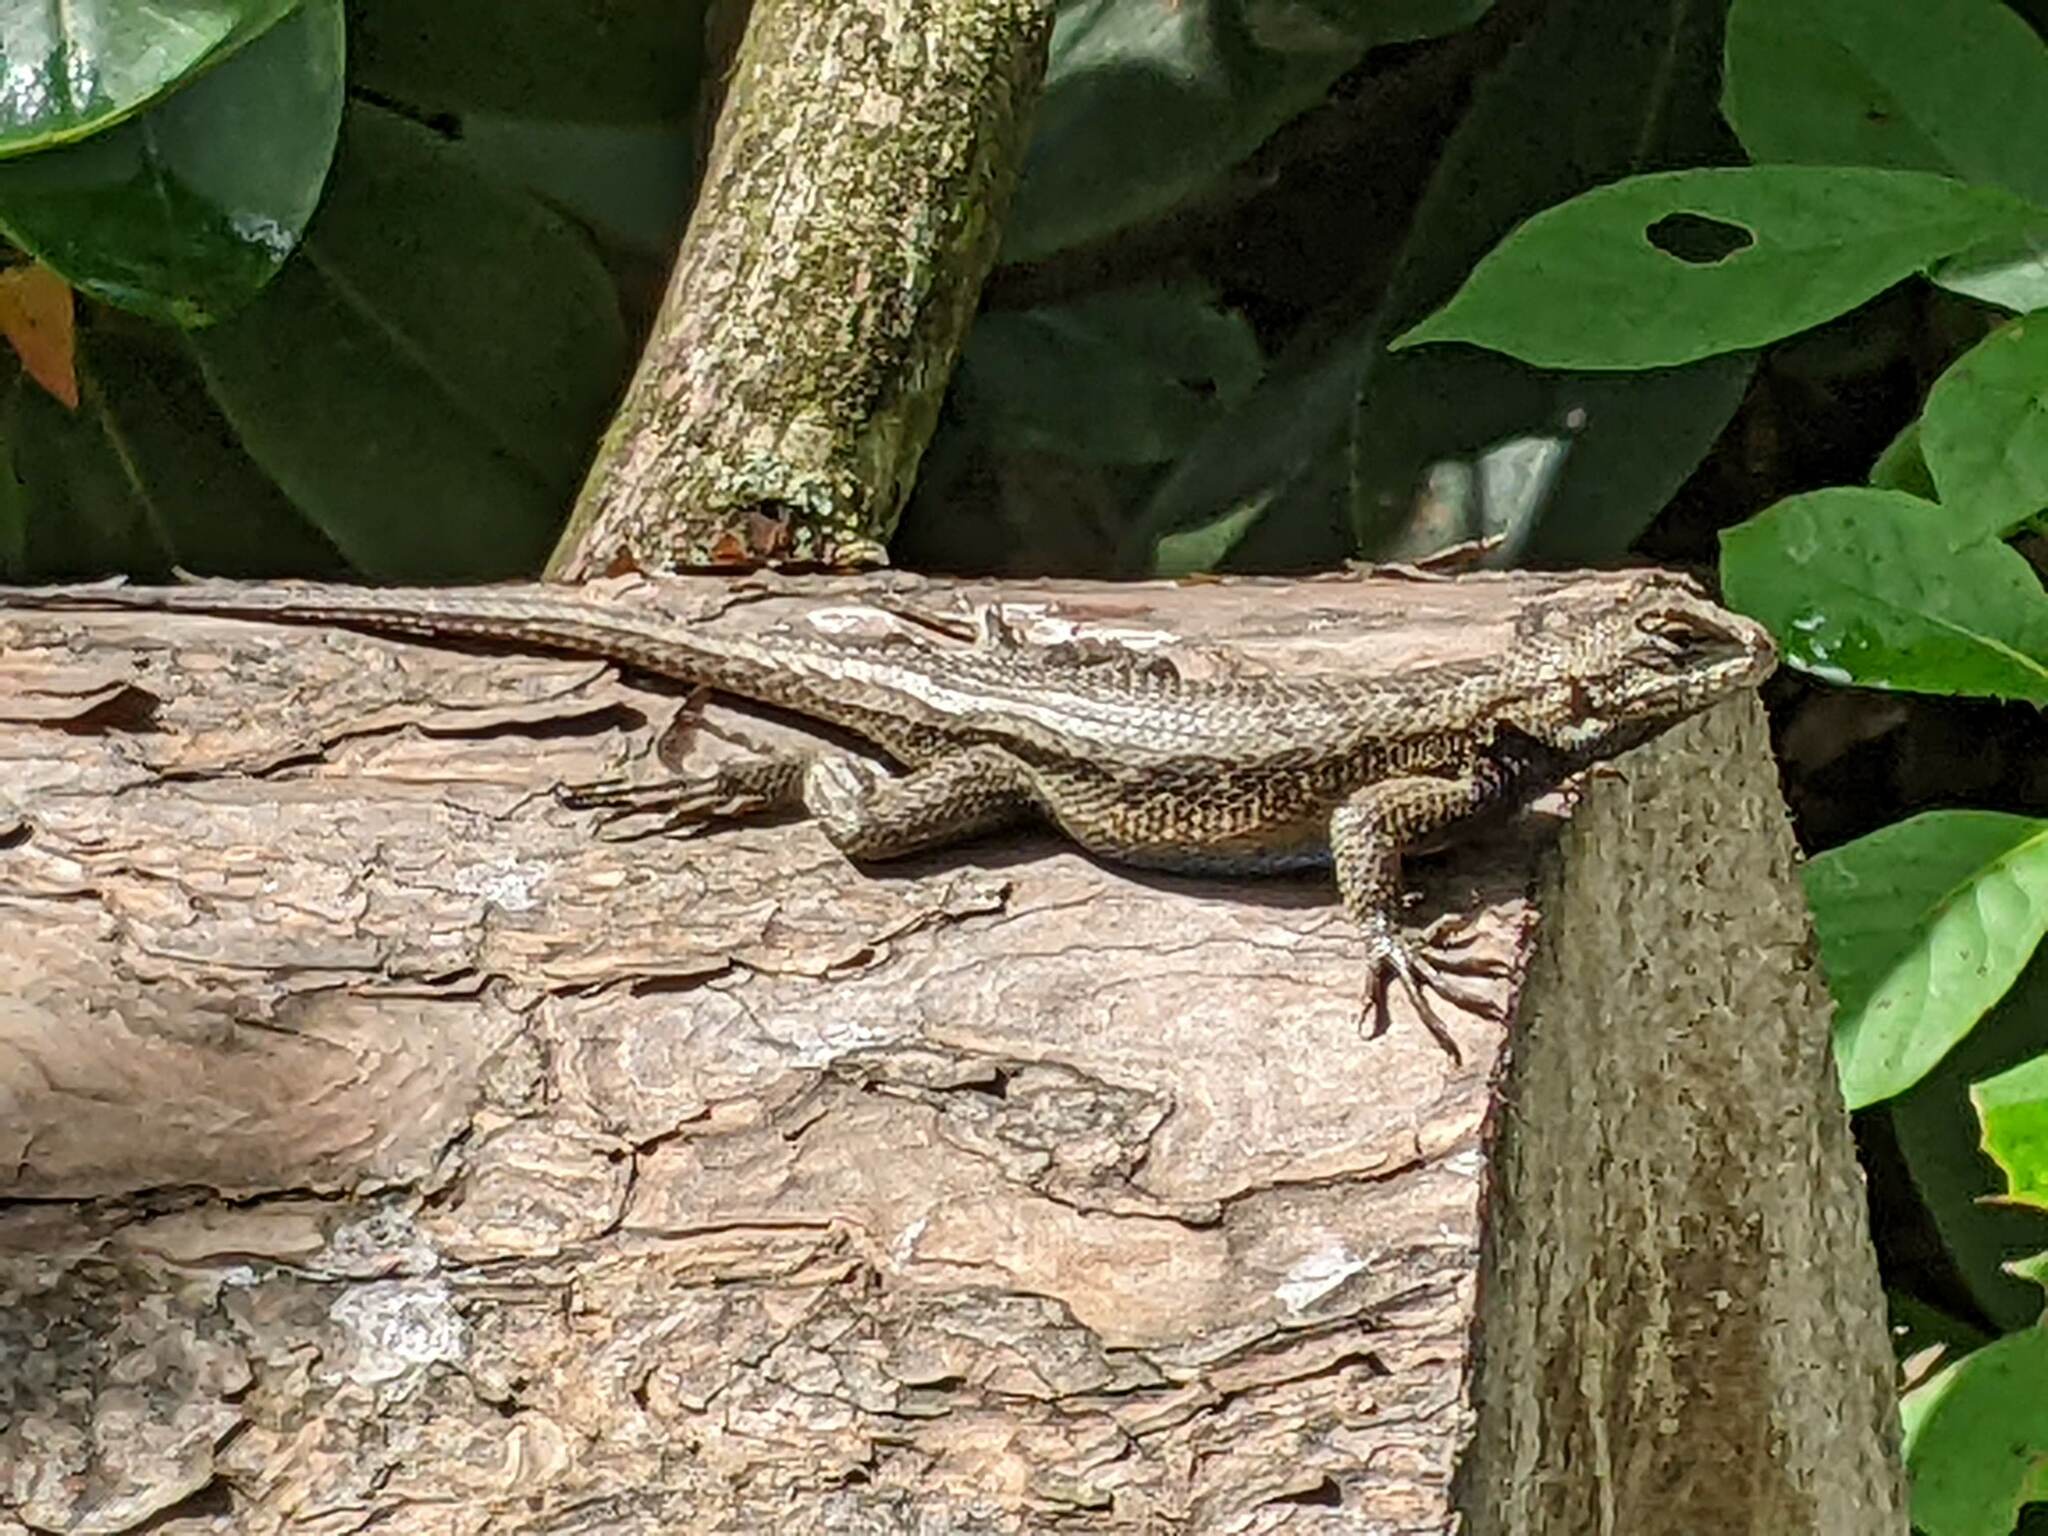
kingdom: Animalia
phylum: Chordata
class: Squamata
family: Phrynosomatidae
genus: Sceloporus
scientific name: Sceloporus undulatus
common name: Eastern fence lizard
